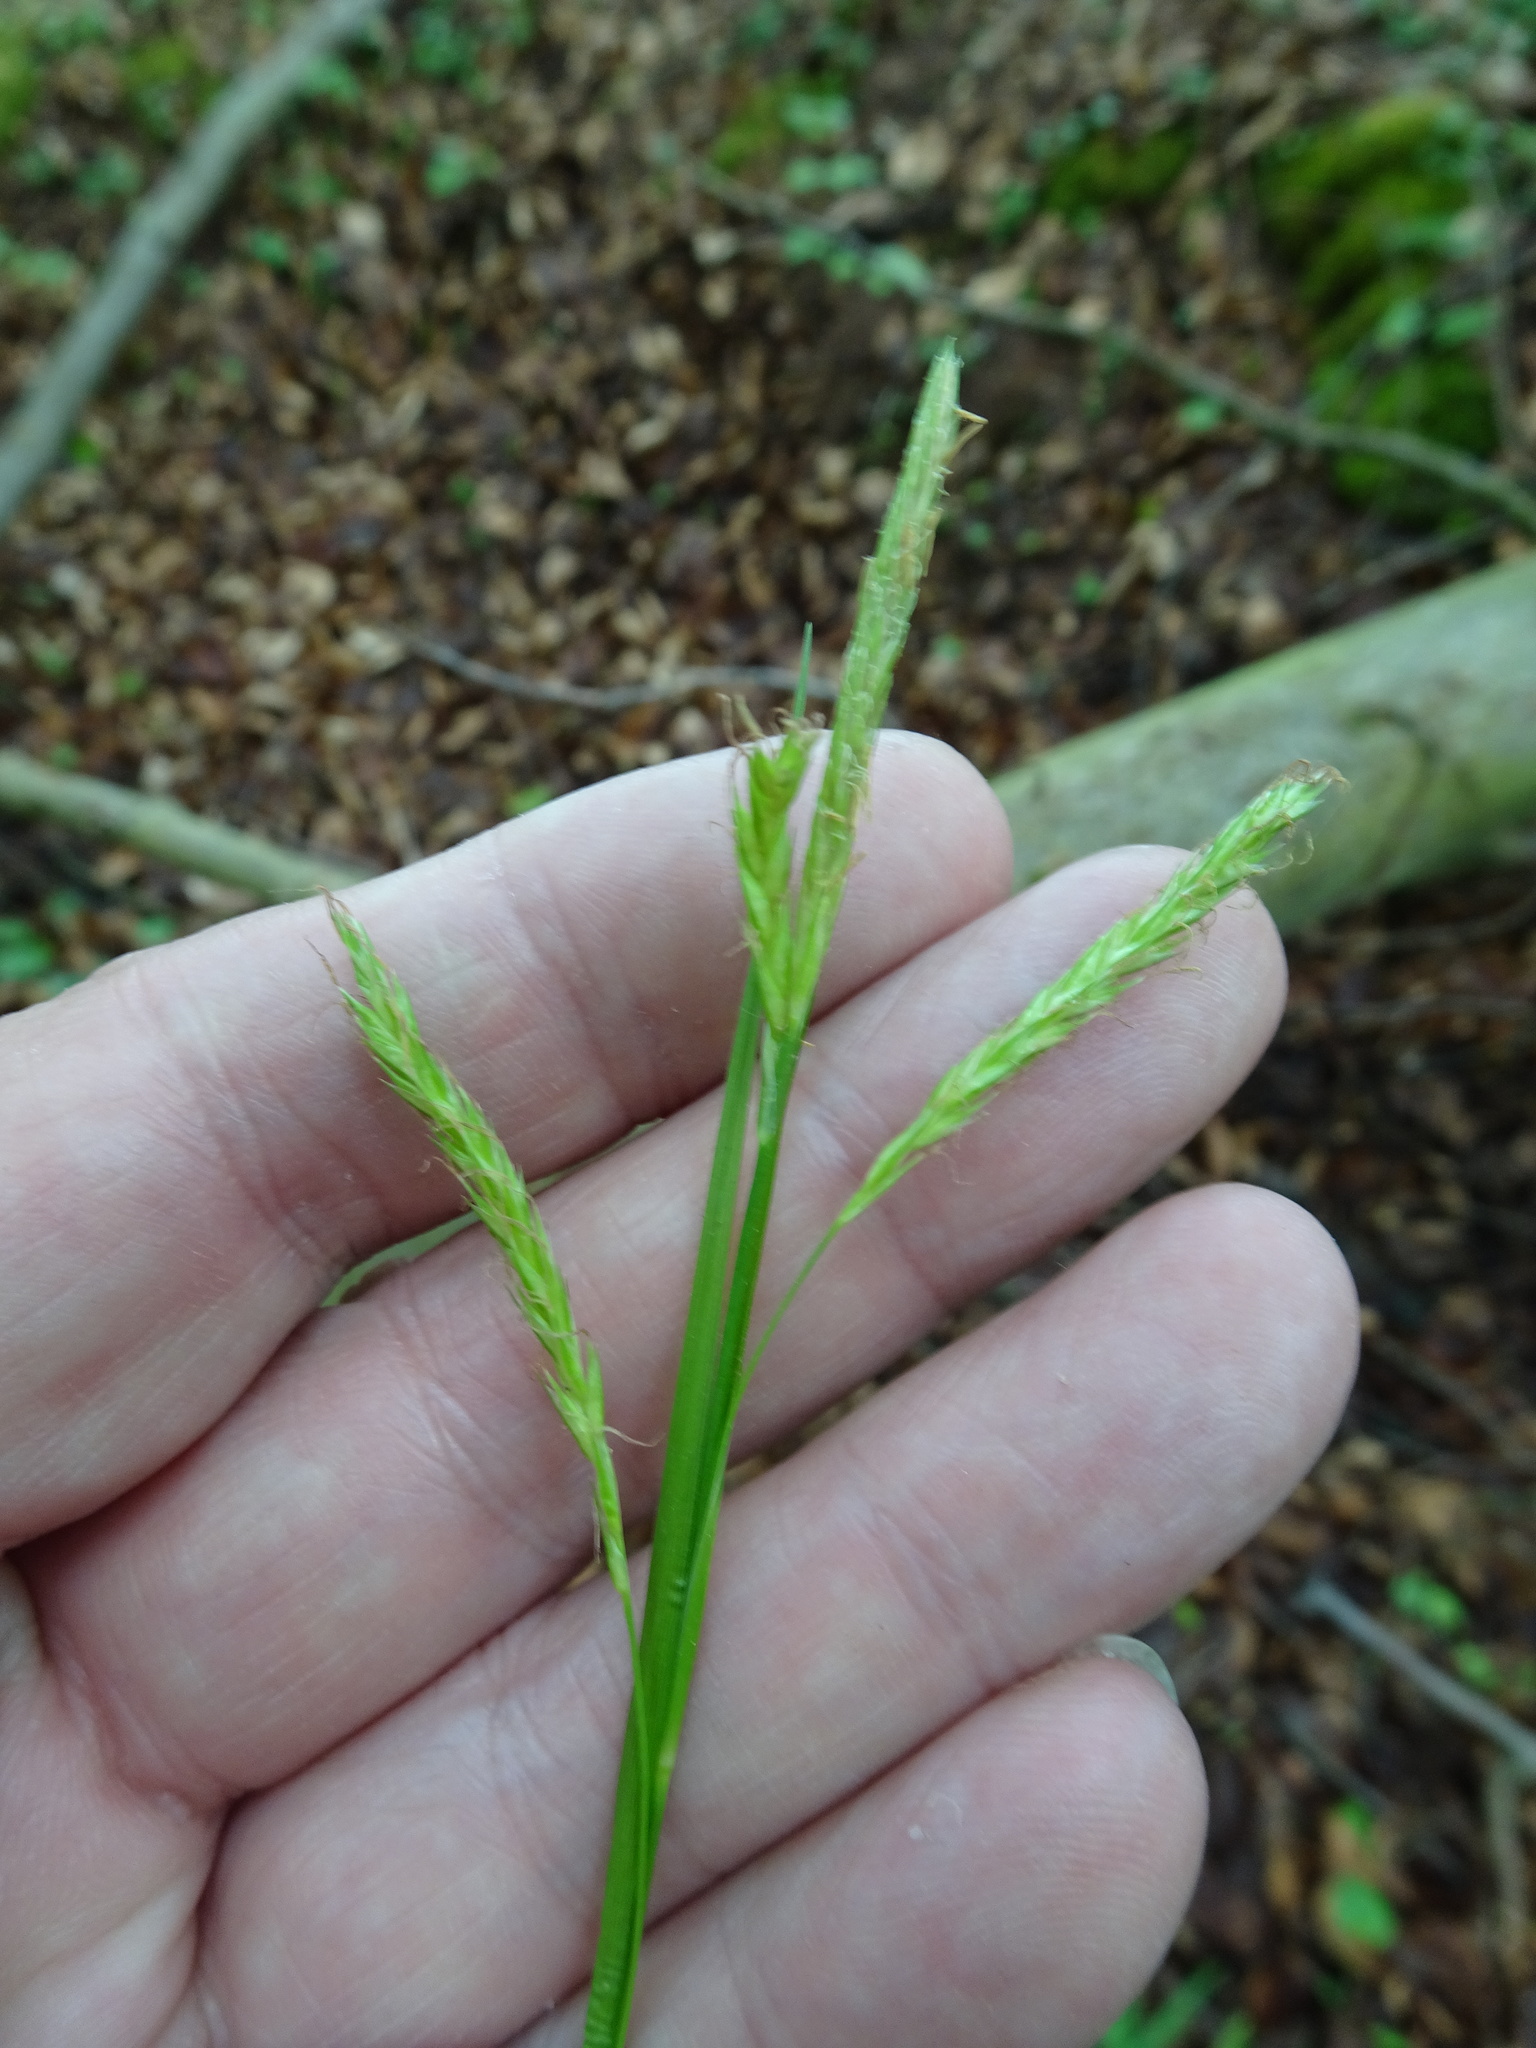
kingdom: Plantae
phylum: Tracheophyta
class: Liliopsida
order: Poales
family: Cyperaceae
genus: Carex
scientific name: Carex sylvatica
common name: Wood-sedge
